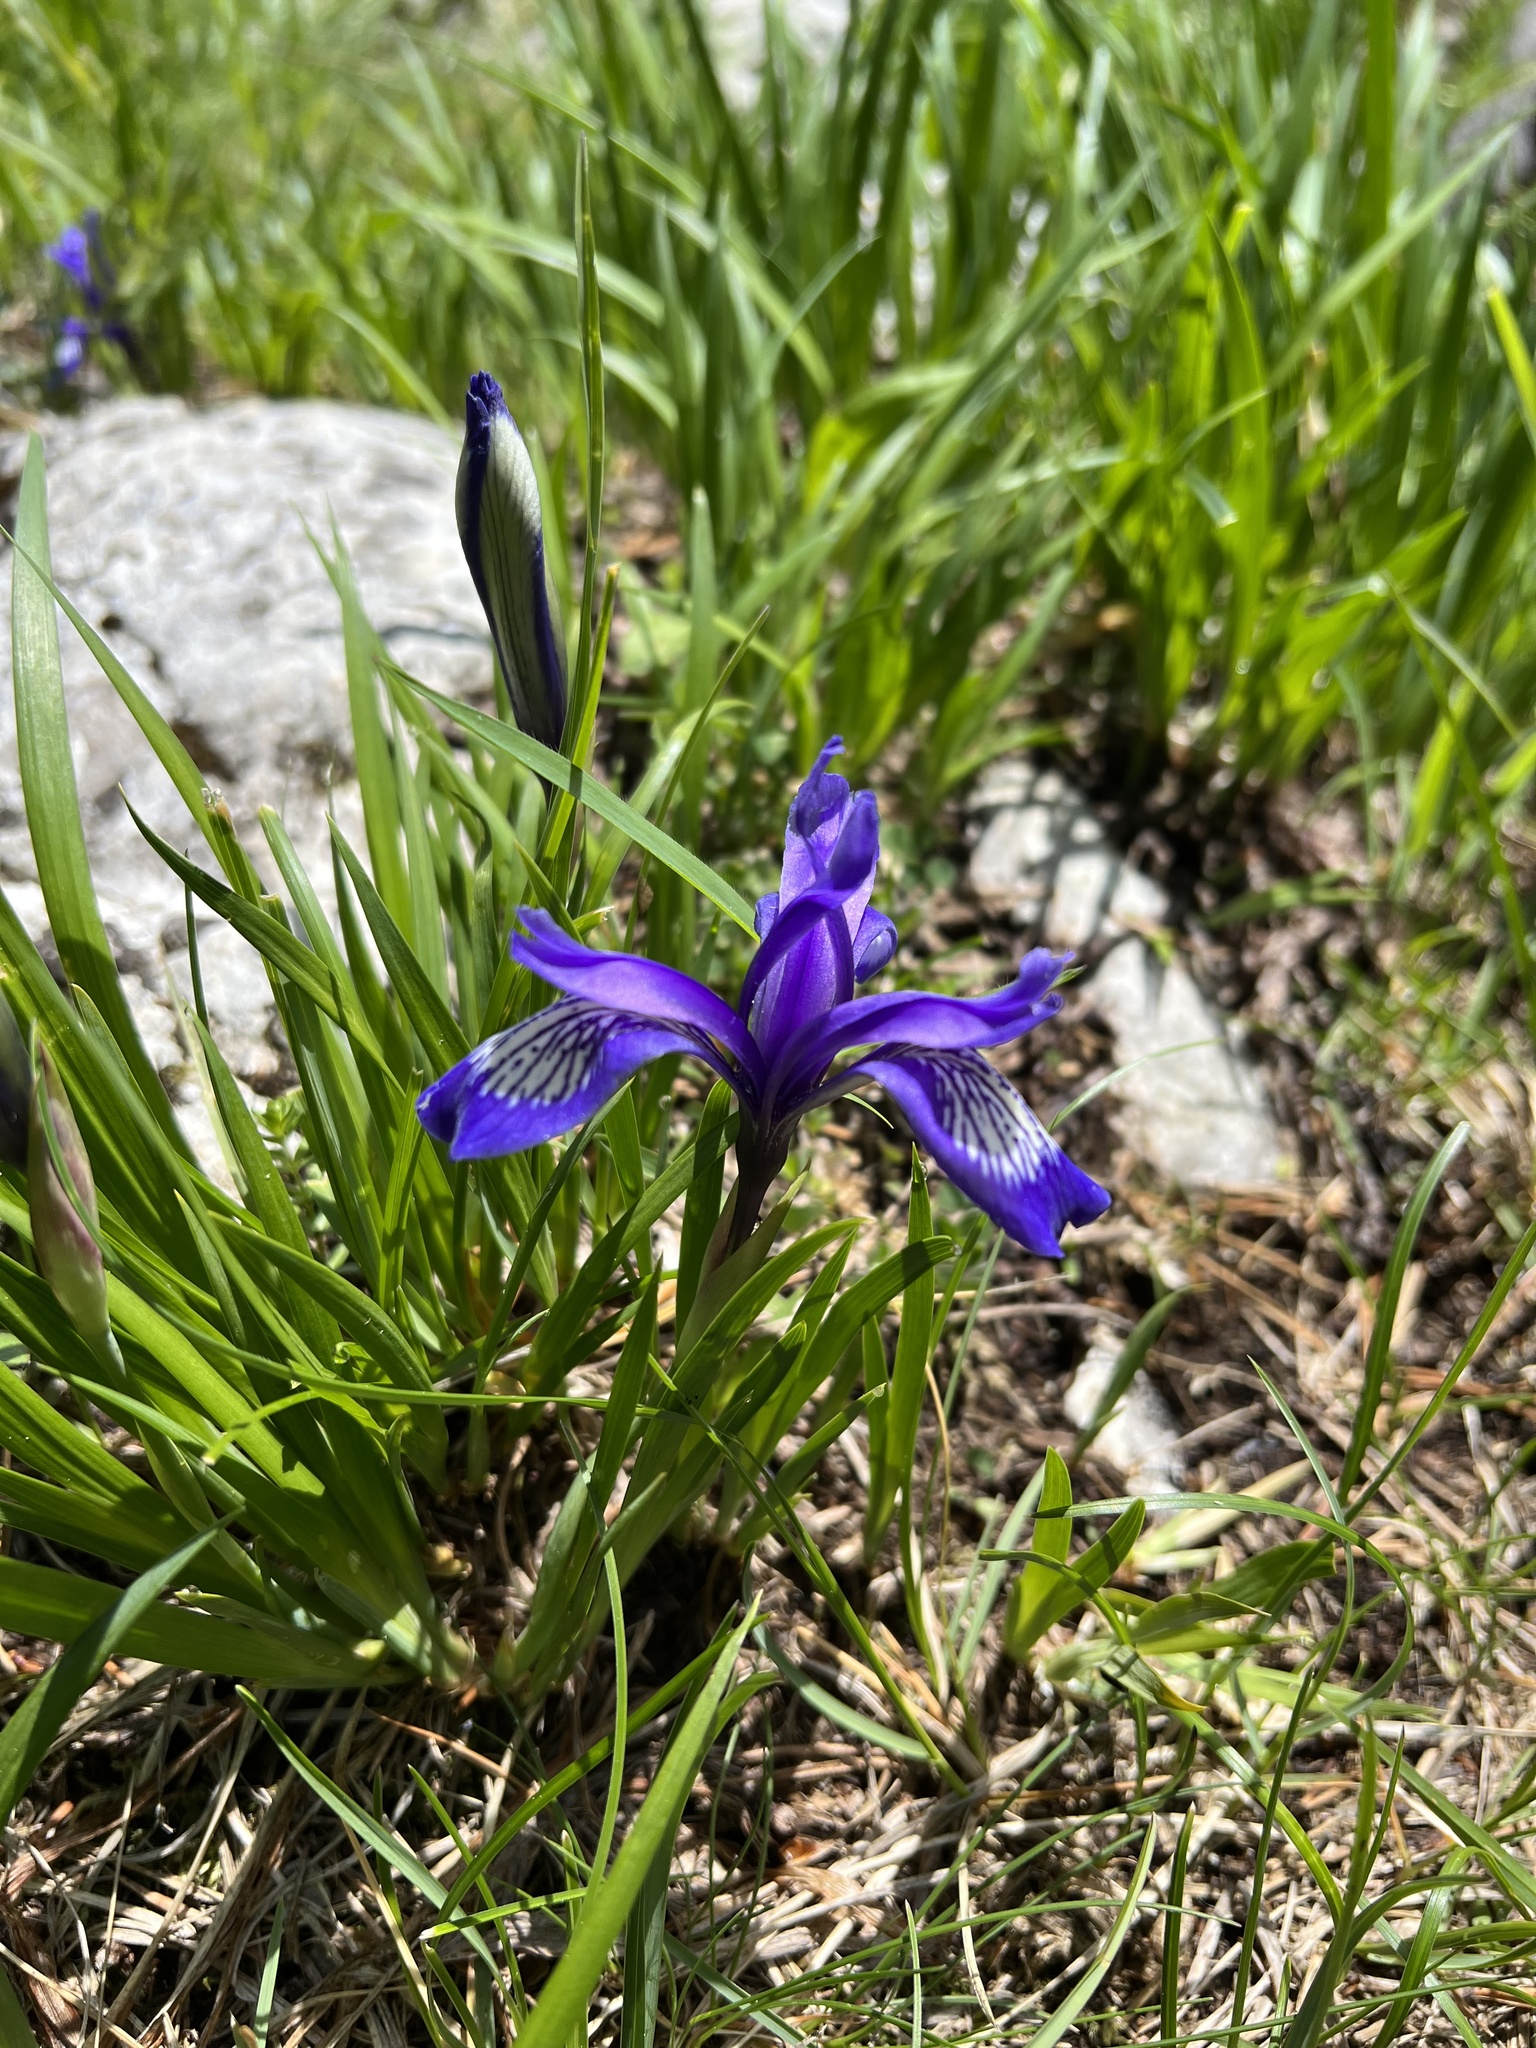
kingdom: Plantae
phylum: Tracheophyta
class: Liliopsida
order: Asparagales
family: Iridaceae
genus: Iris
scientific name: Iris ruthenica
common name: Purple-bract iris
